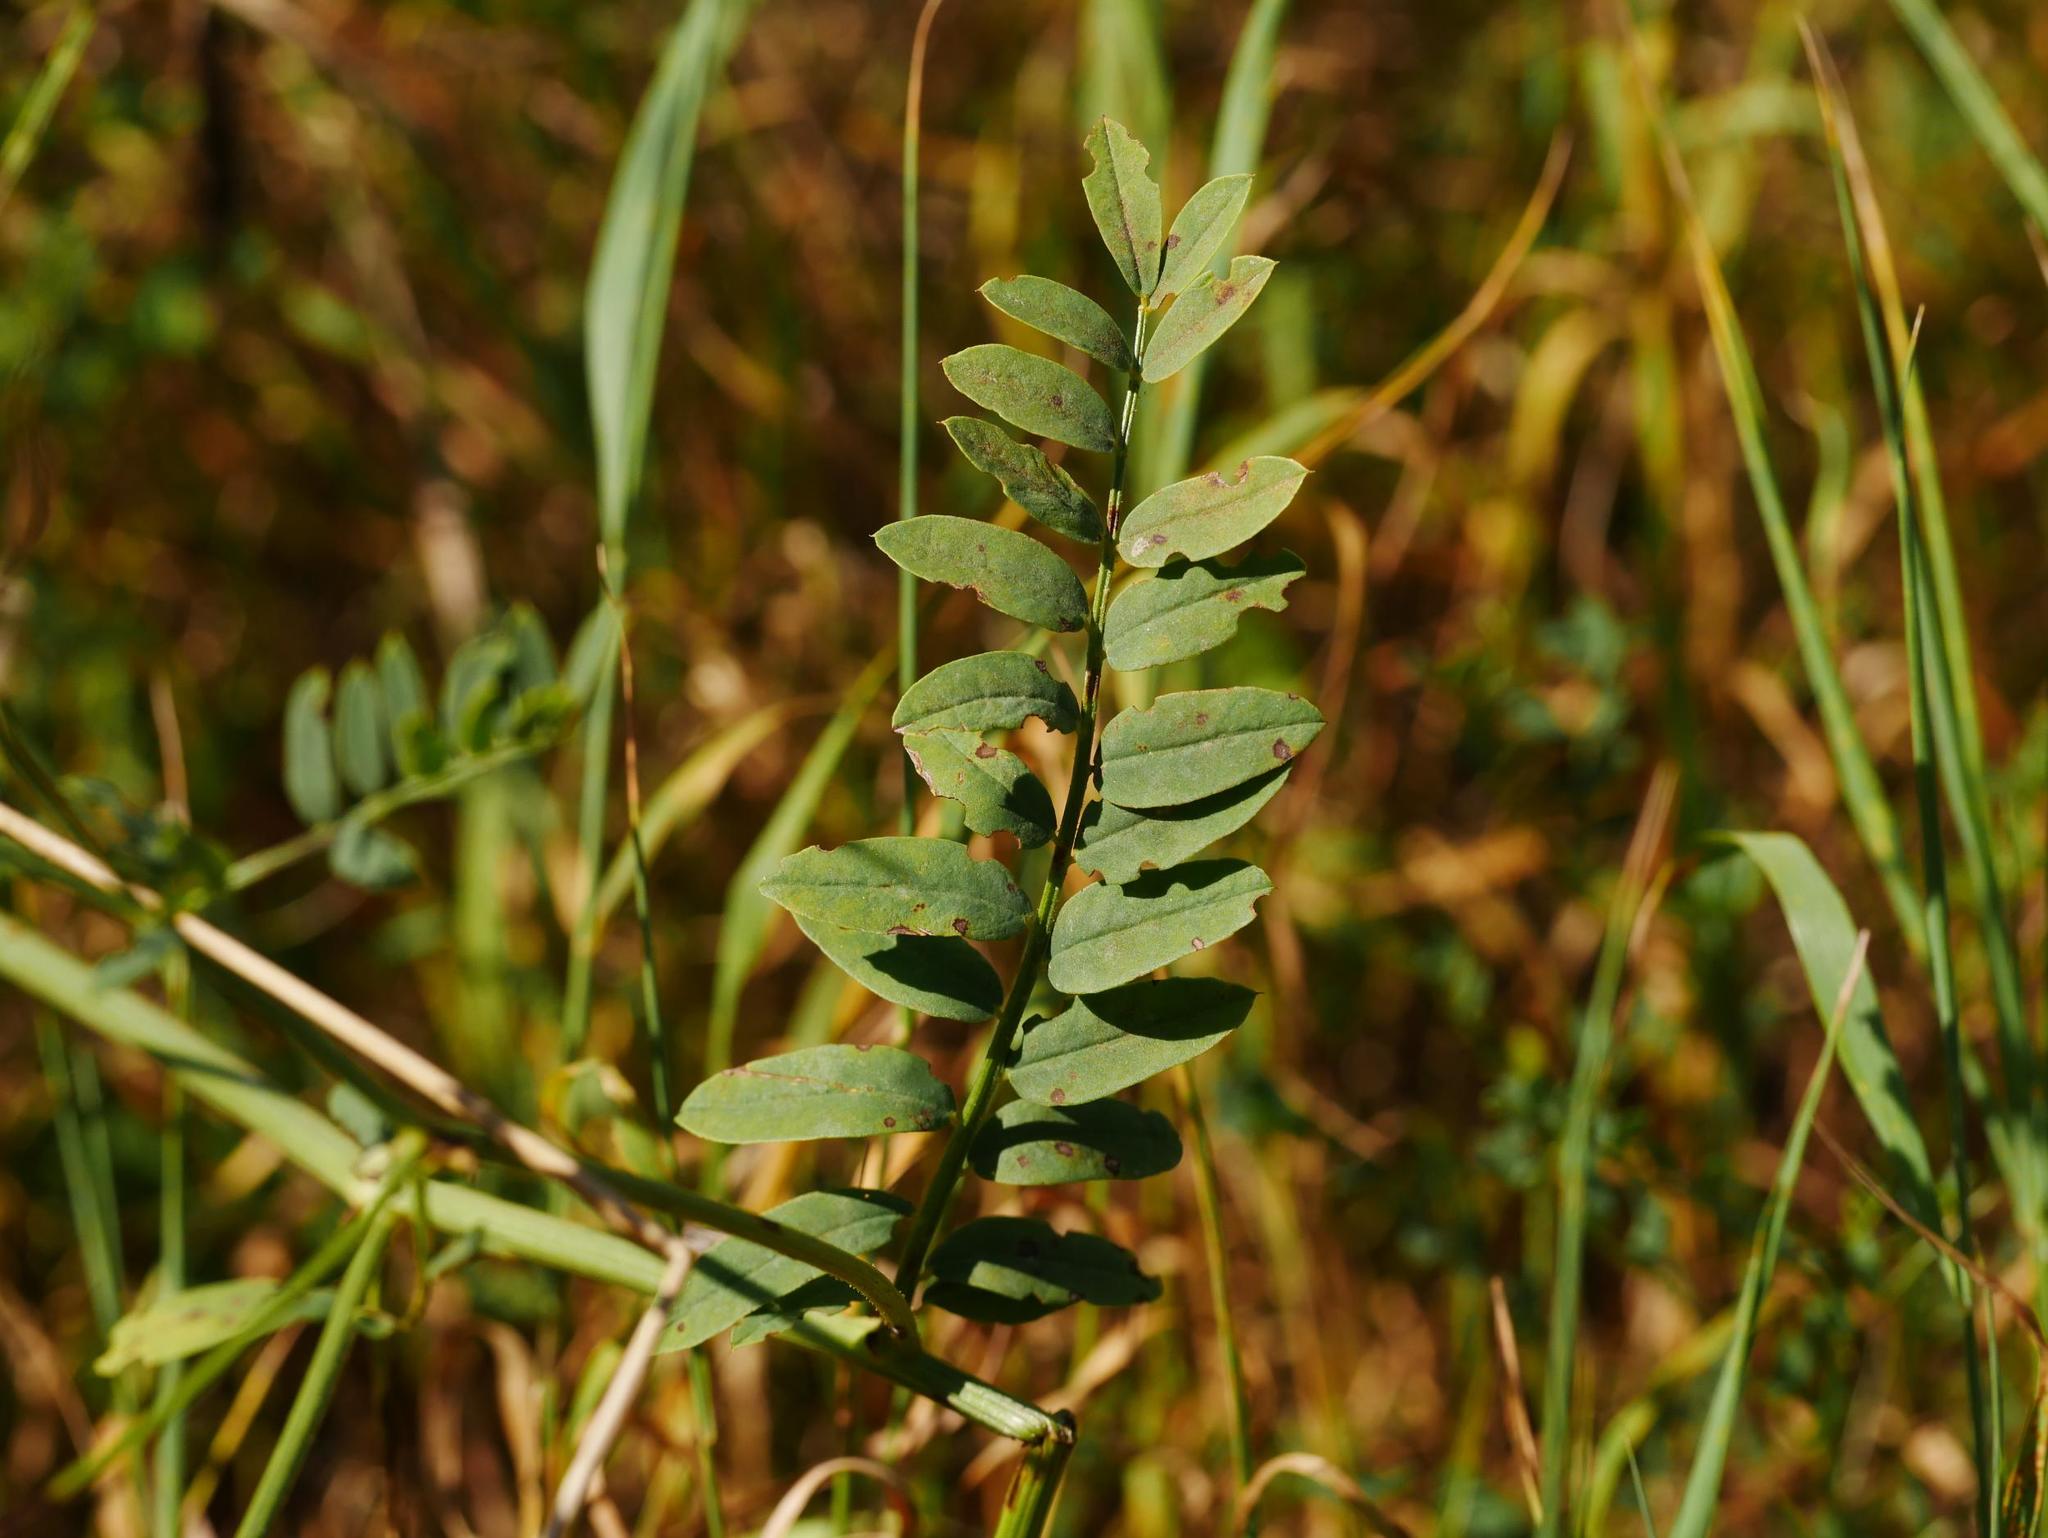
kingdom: Plantae
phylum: Tracheophyta
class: Magnoliopsida
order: Fabales
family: Fabaceae
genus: Coronilla
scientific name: Coronilla varia
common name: Crownvetch
